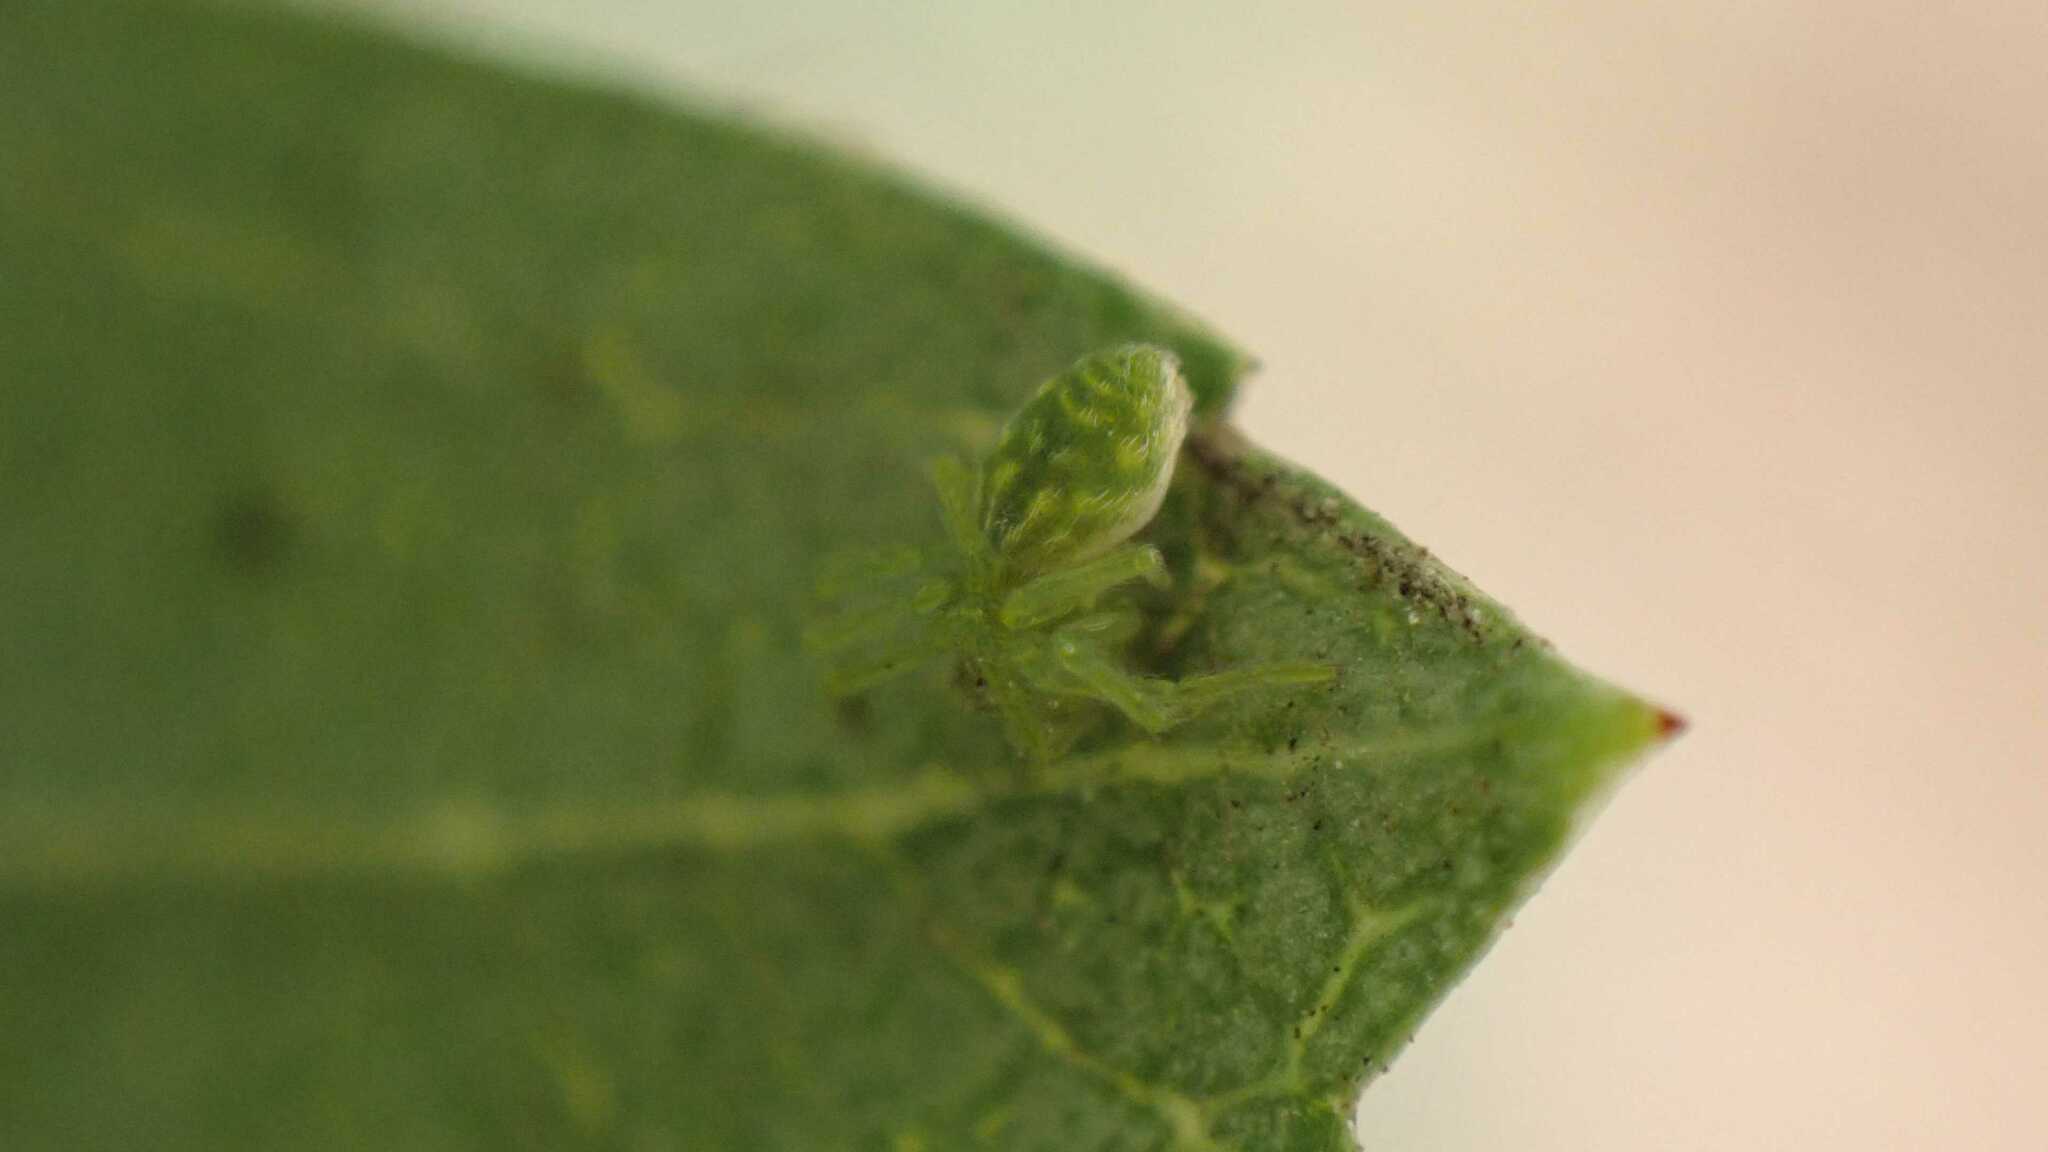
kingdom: Animalia
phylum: Arthropoda
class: Arachnida
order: Araneae
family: Dictynidae
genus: Nigma
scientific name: Nigma walckenaeri
